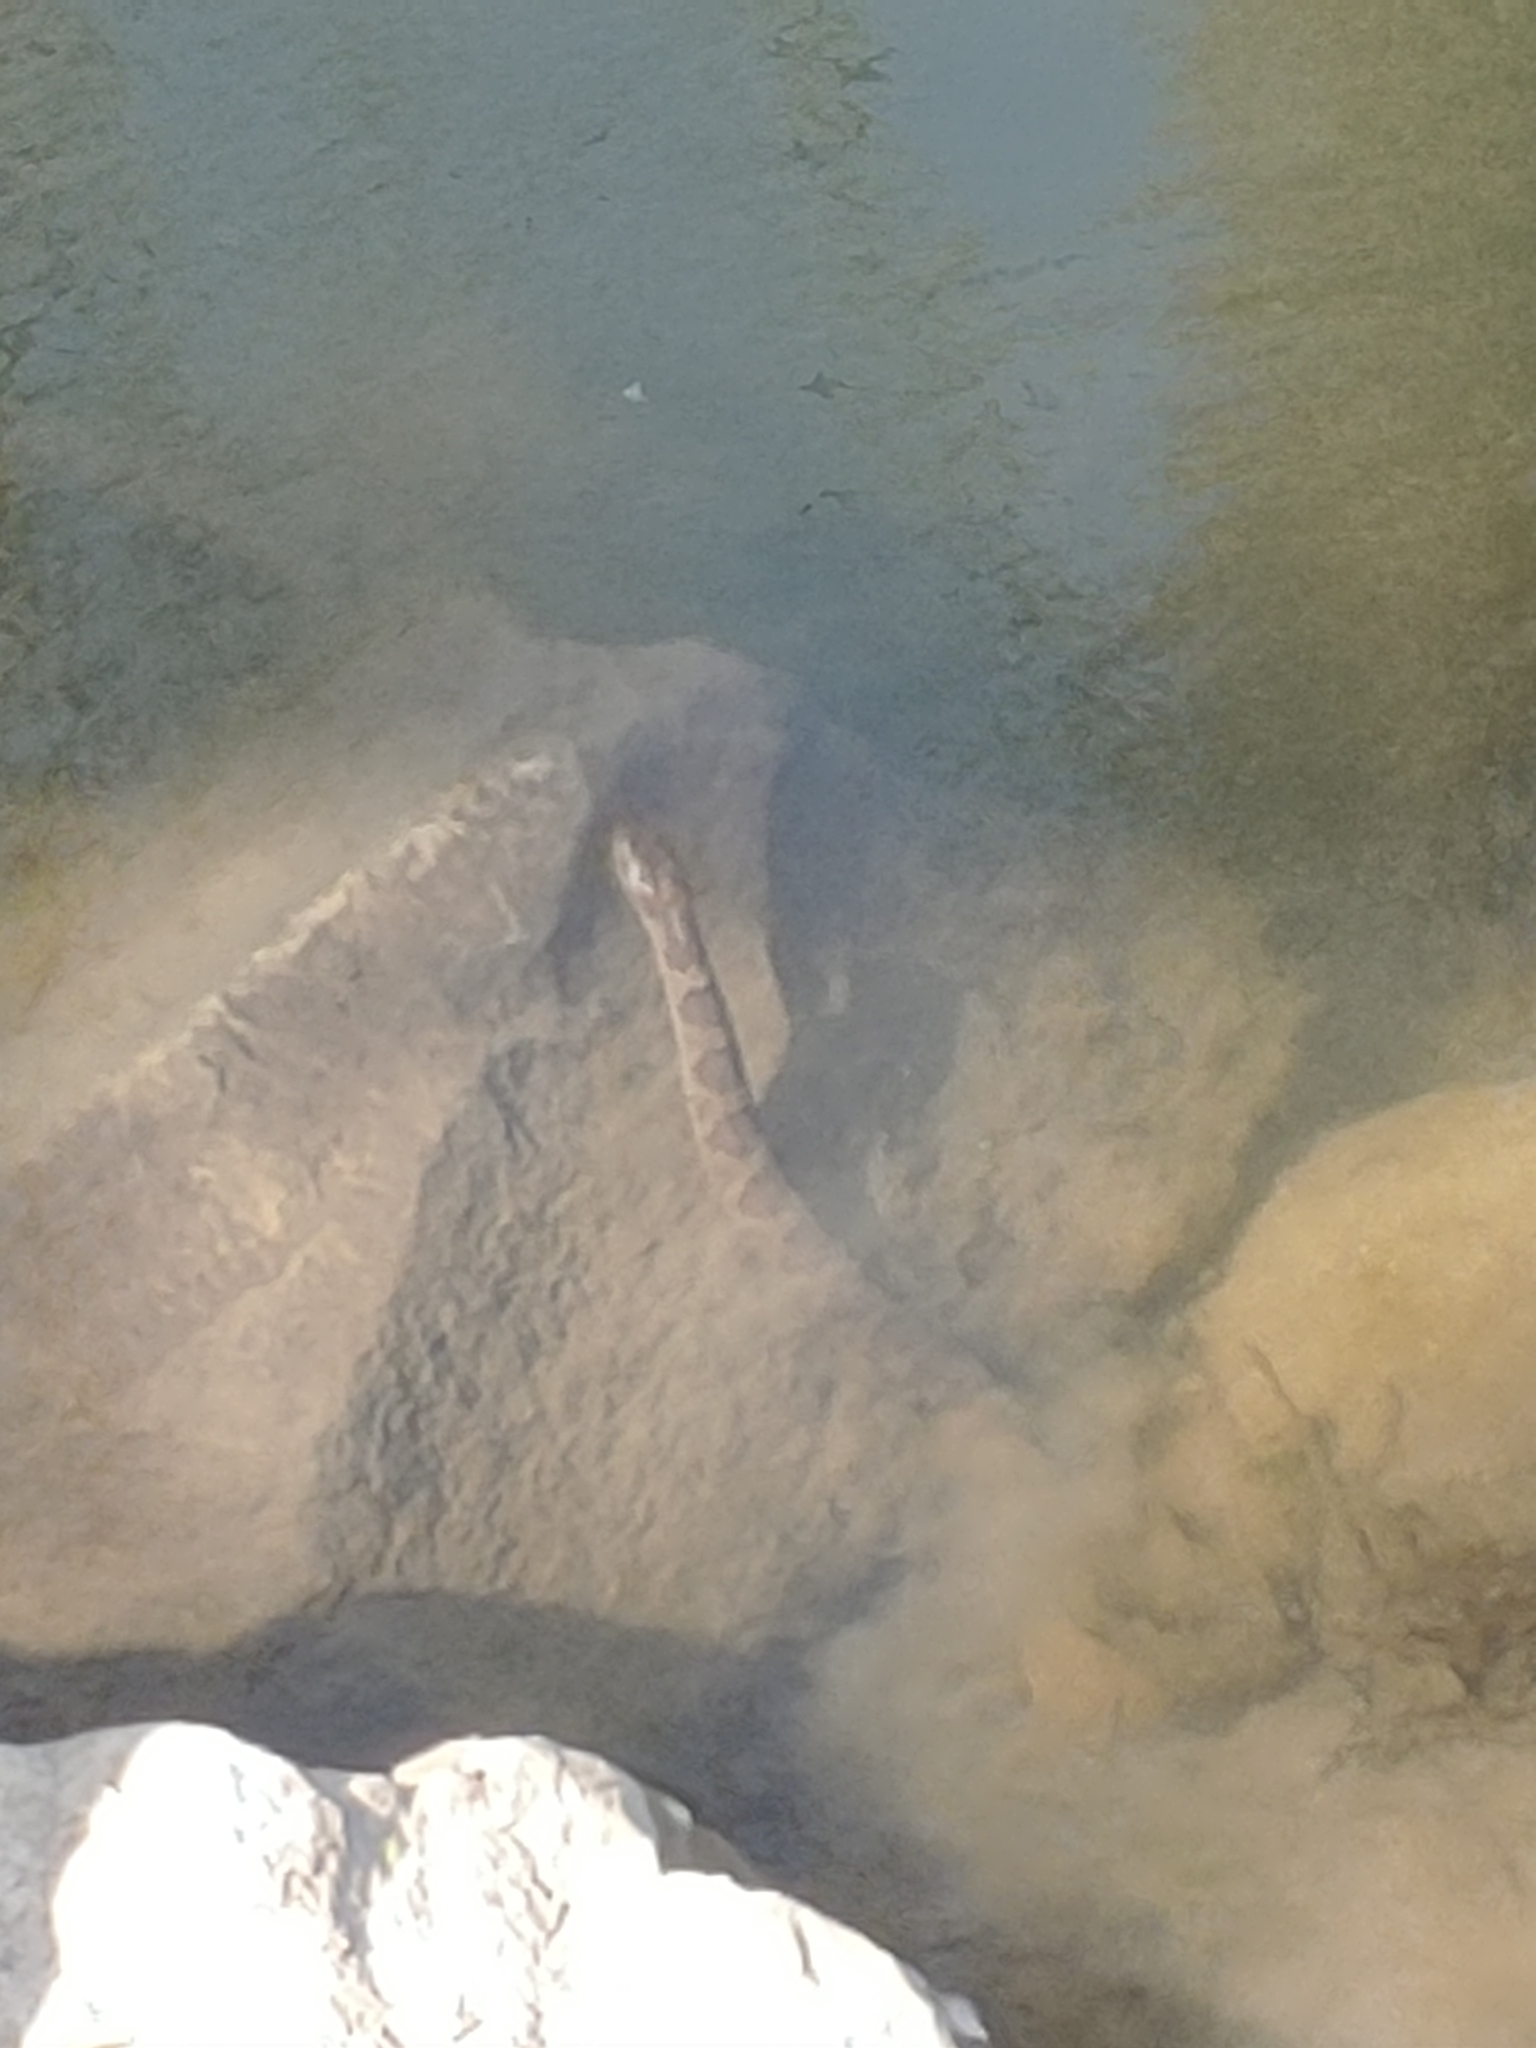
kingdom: Animalia
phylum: Chordata
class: Squamata
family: Colubridae
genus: Nerodia
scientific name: Nerodia sipedon
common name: Northern water snake
